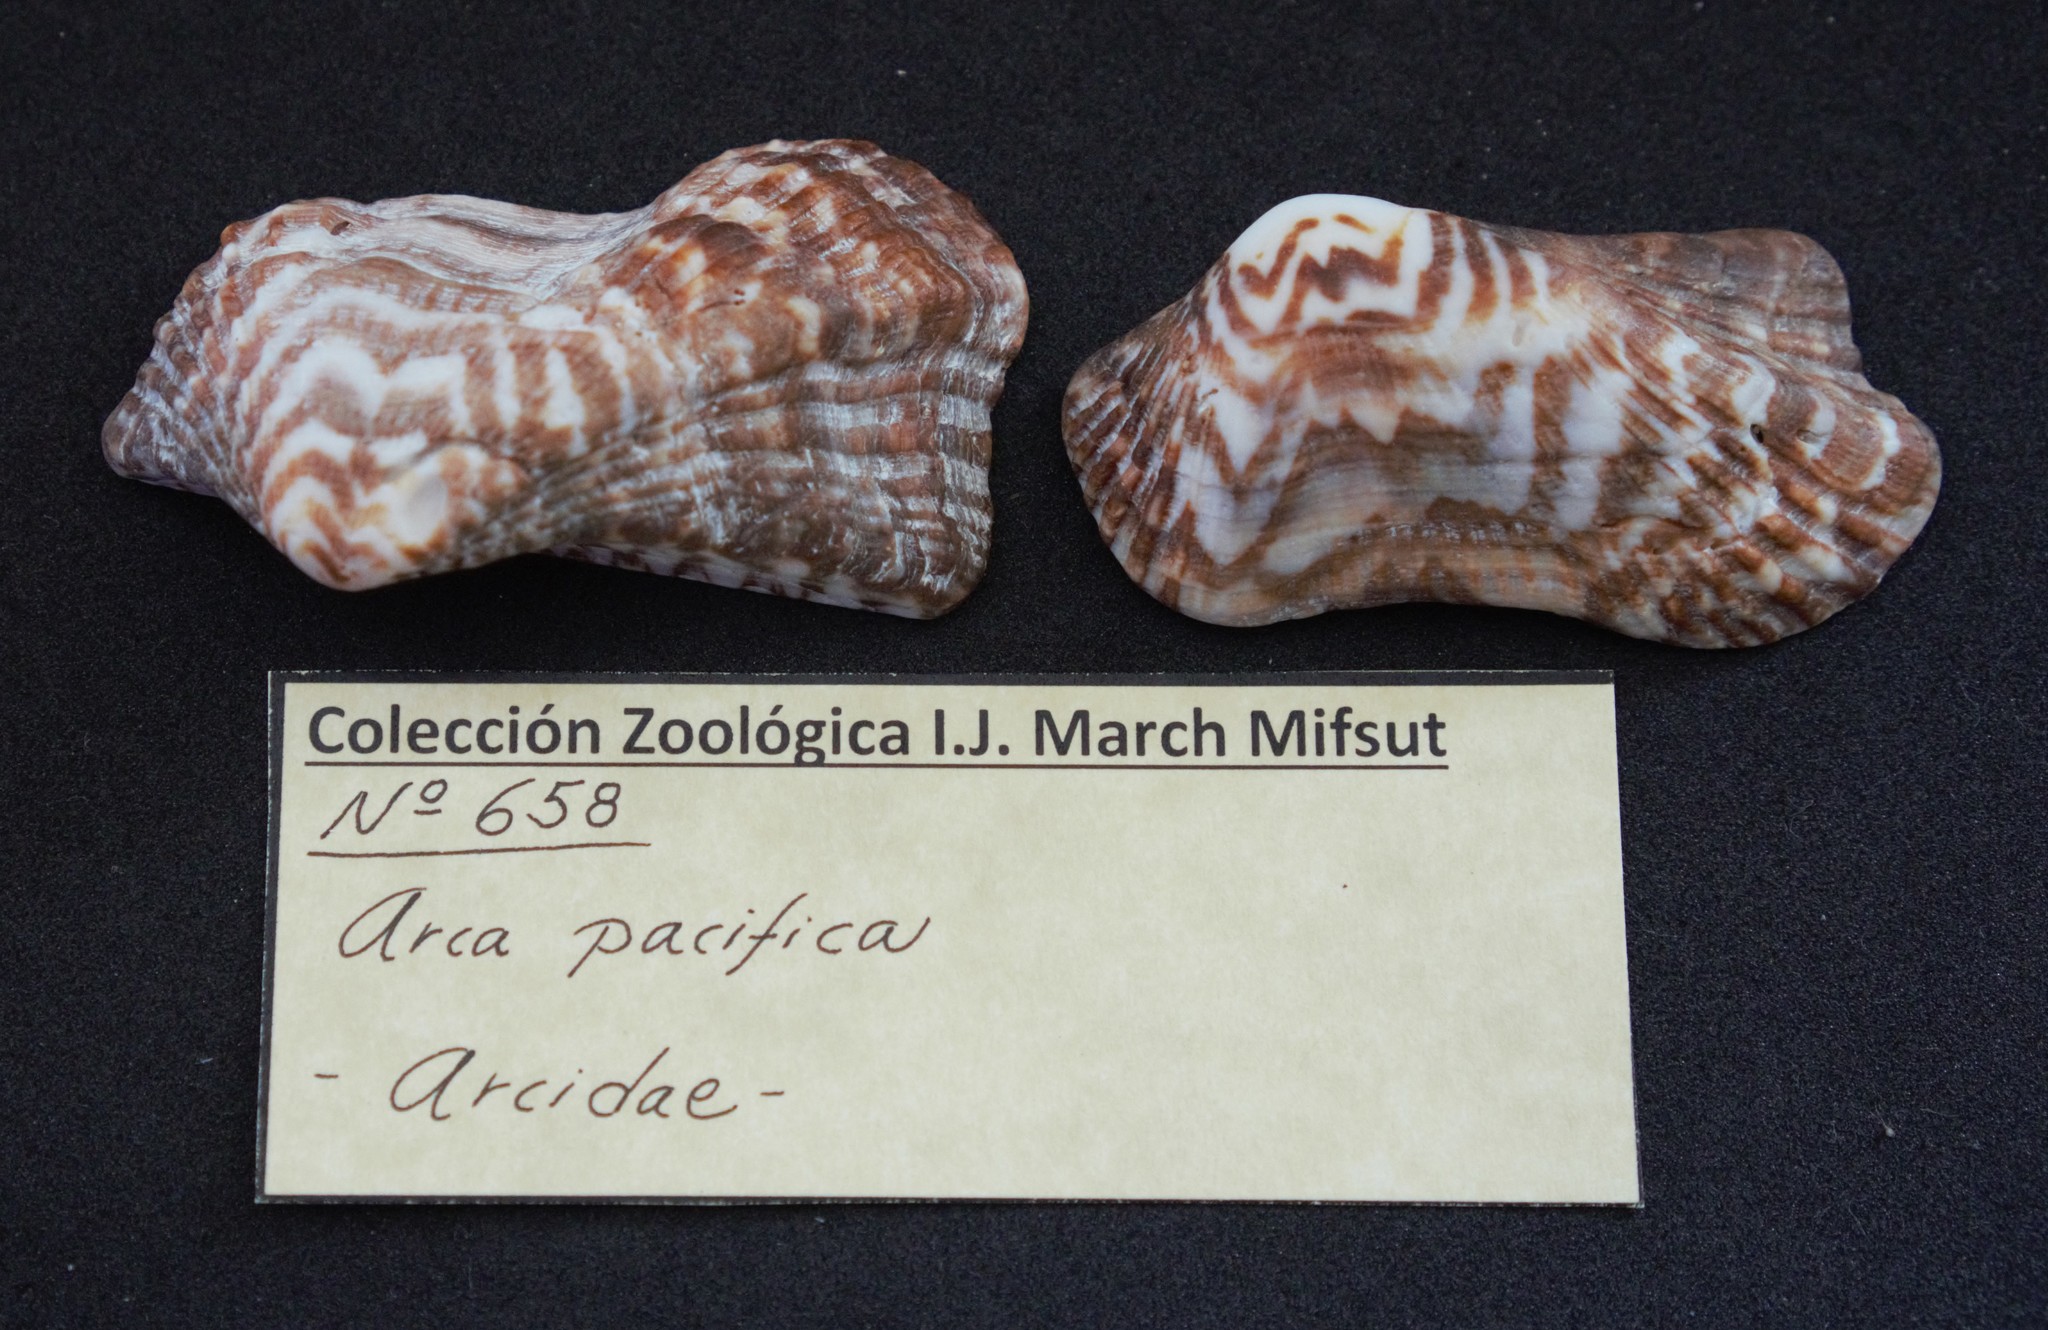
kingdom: Animalia
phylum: Mollusca
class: Bivalvia
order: Arcida
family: Arcidae
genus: Arca
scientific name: Arca pacifica
